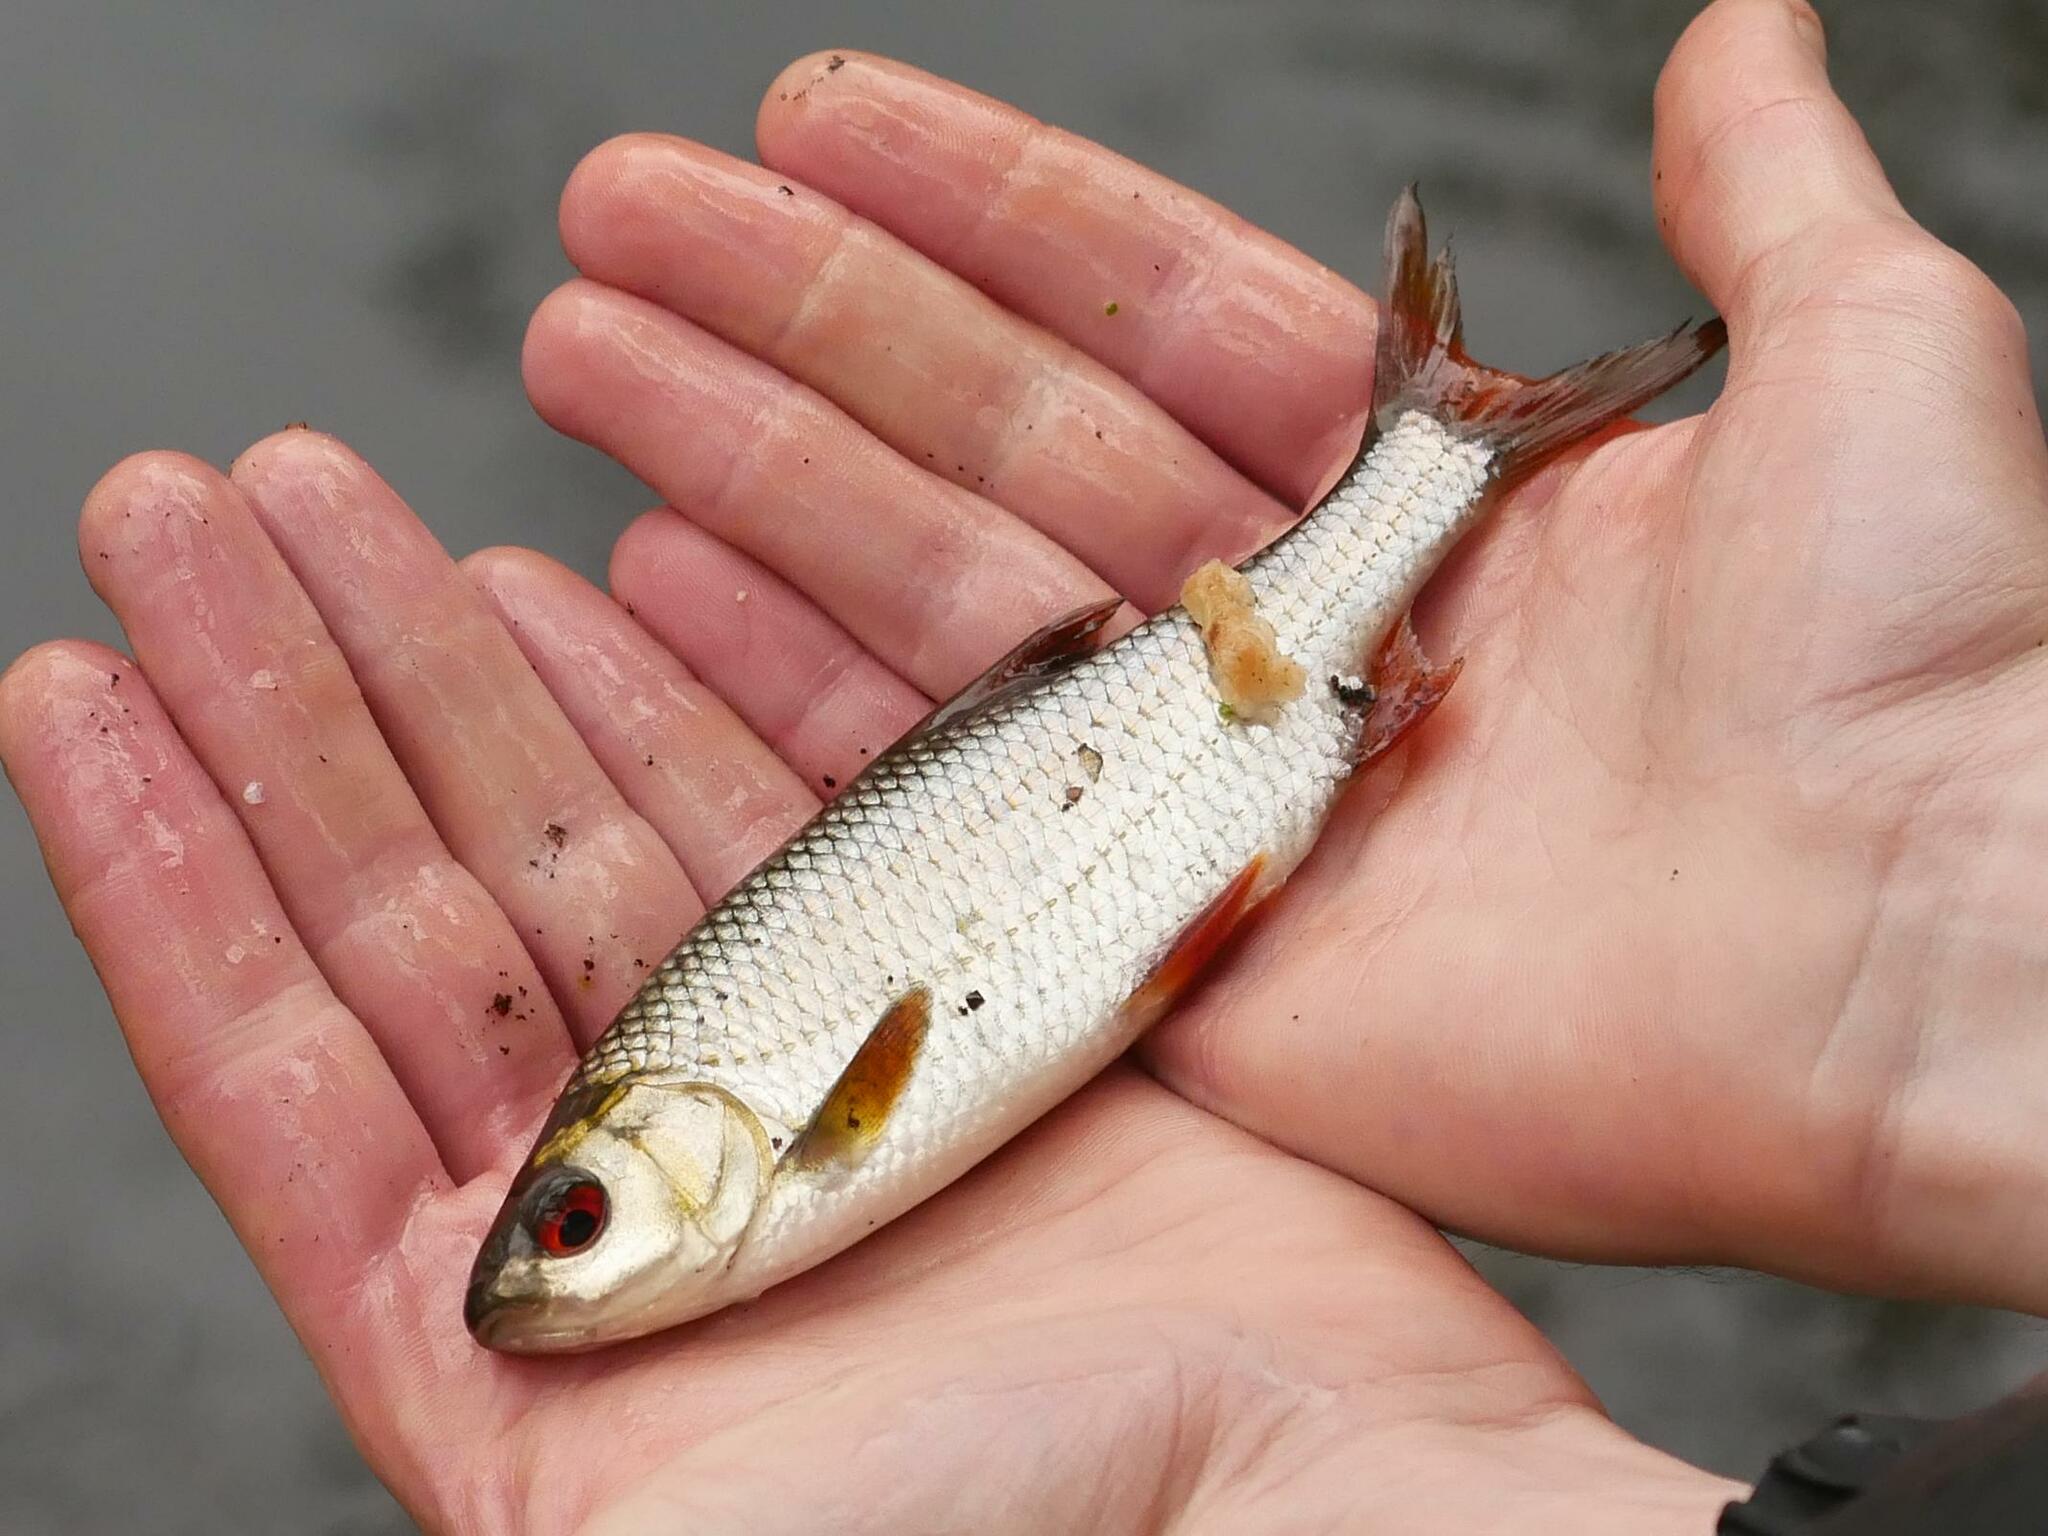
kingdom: Animalia
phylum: Chordata
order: Cypriniformes
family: Cyprinidae
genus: Rutilus
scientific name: Rutilus rutilus
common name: Roach
